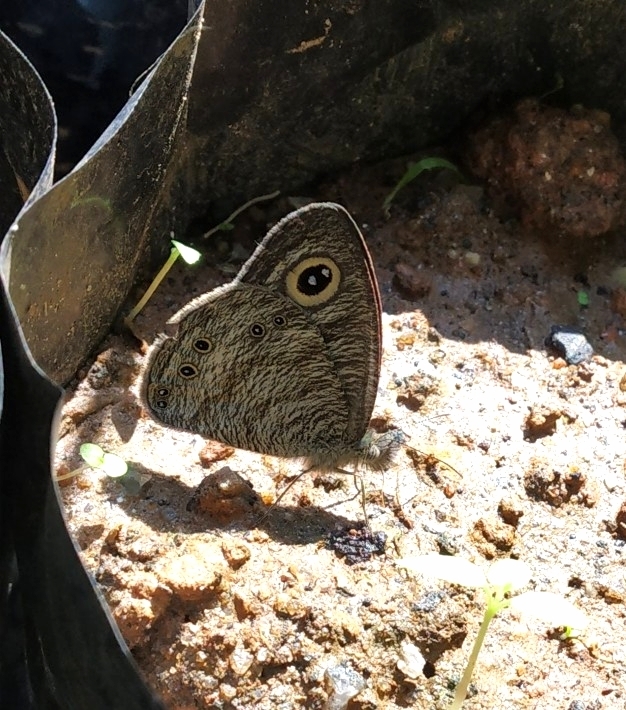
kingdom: Animalia
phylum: Arthropoda
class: Insecta
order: Lepidoptera
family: Nymphalidae
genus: Ypthima
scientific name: Ypthima baldus
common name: Common five-ring
